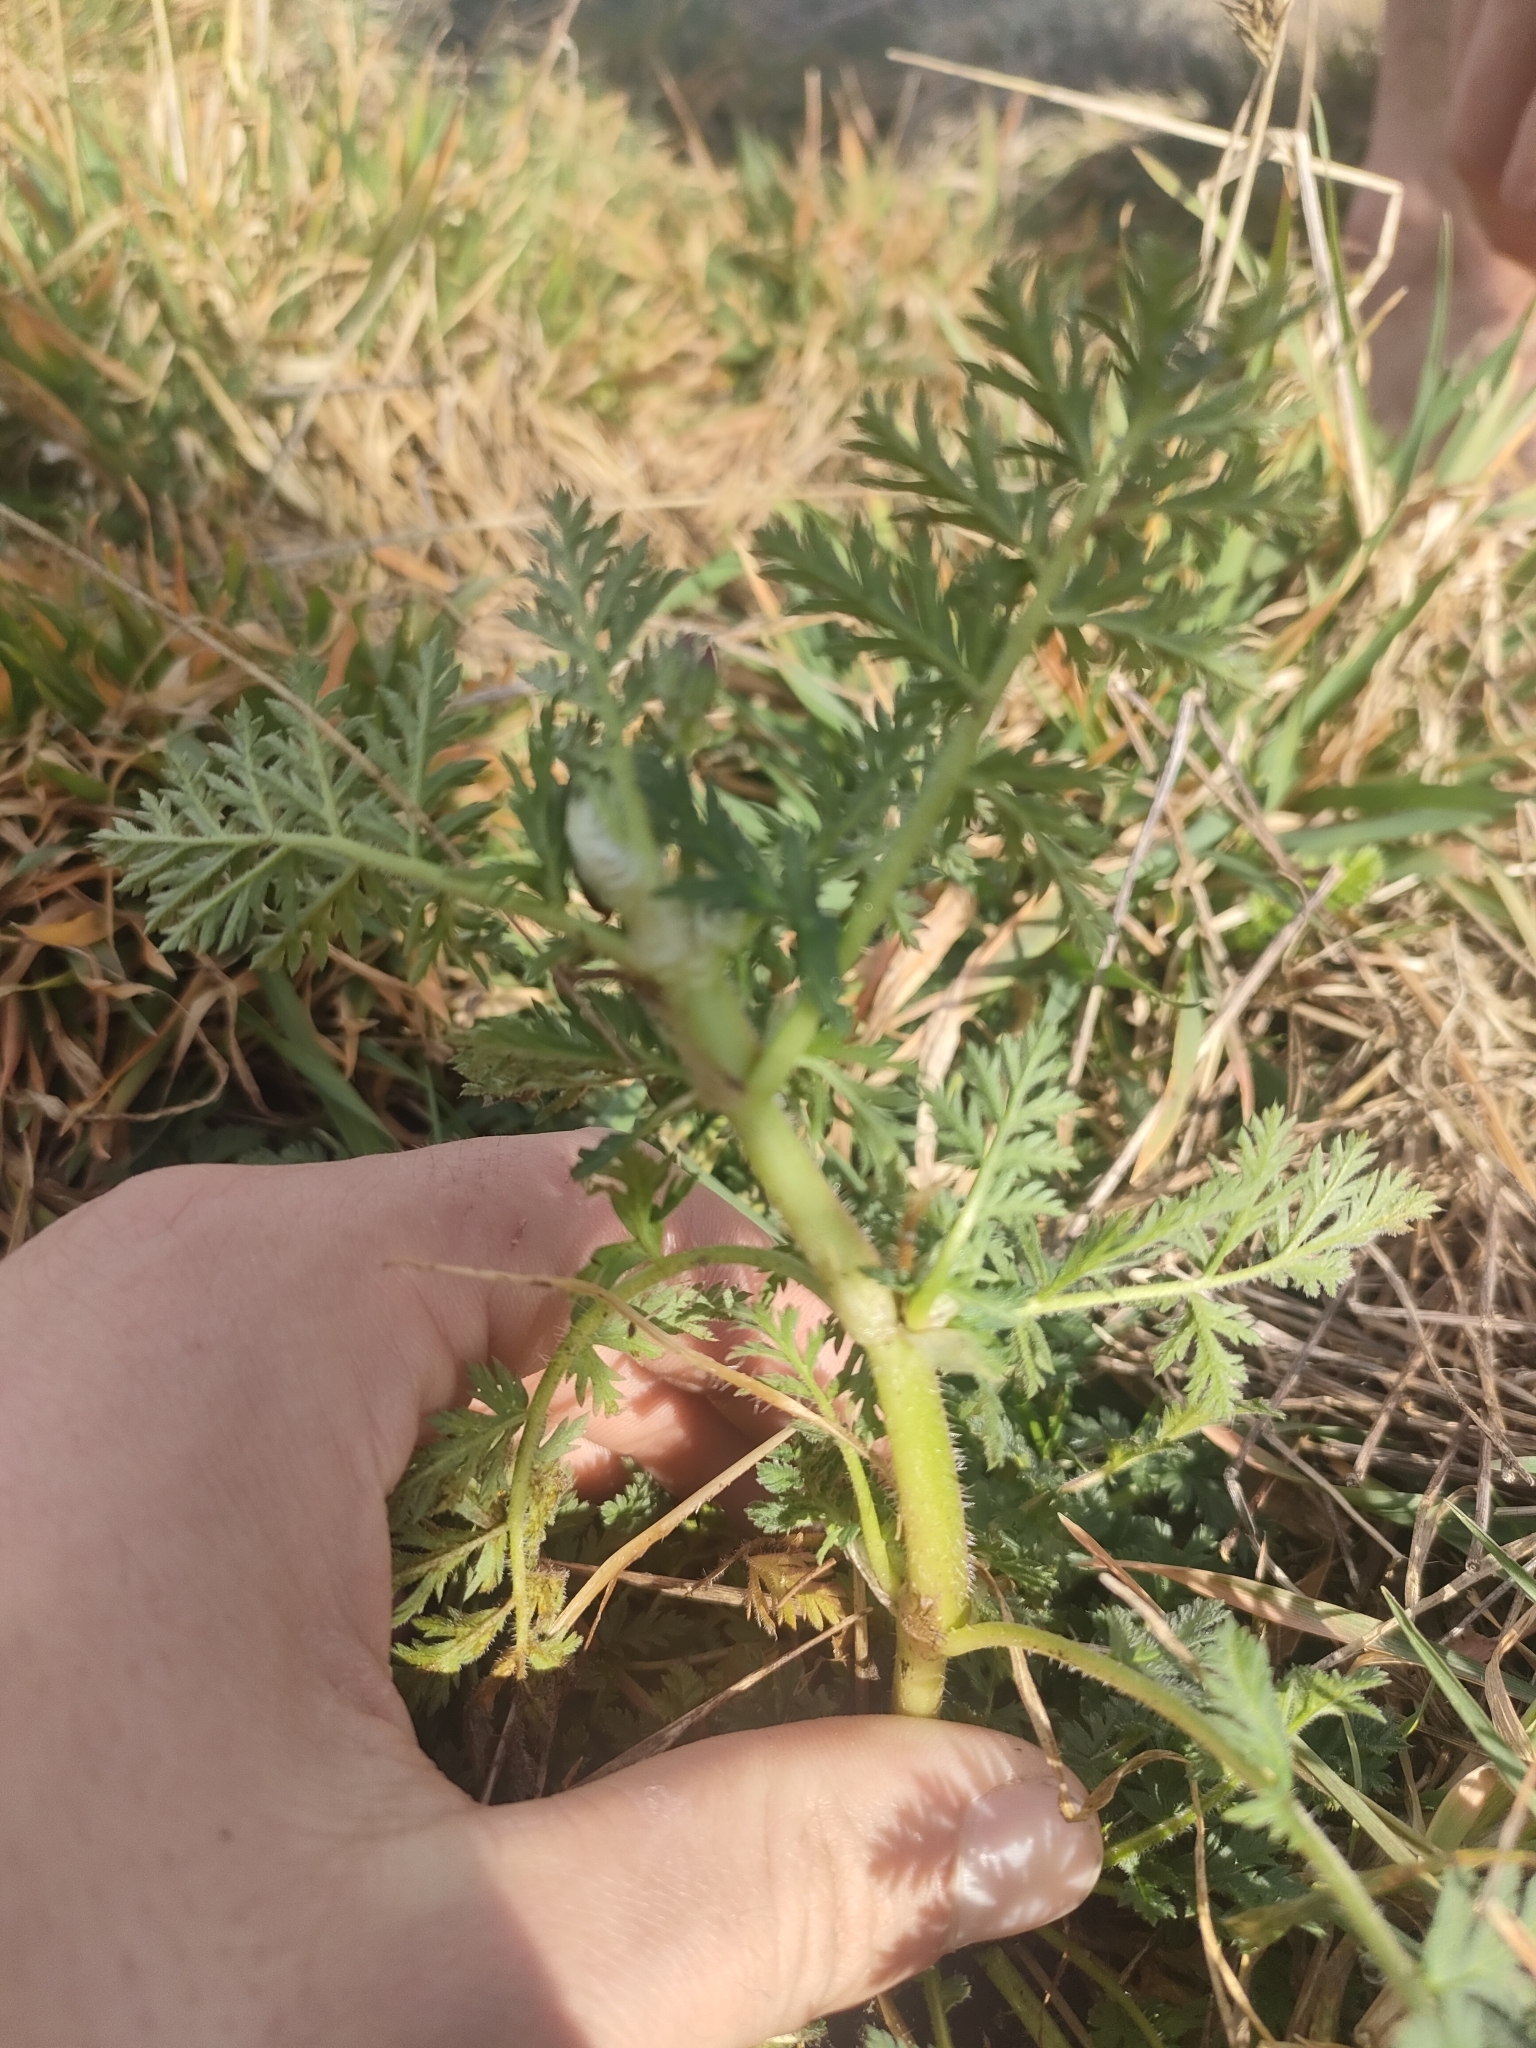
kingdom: Plantae
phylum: Tracheophyta
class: Magnoliopsida
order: Geraniales
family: Geraniaceae
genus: Erodium
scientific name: Erodium cicutarium
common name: Common stork's-bill
